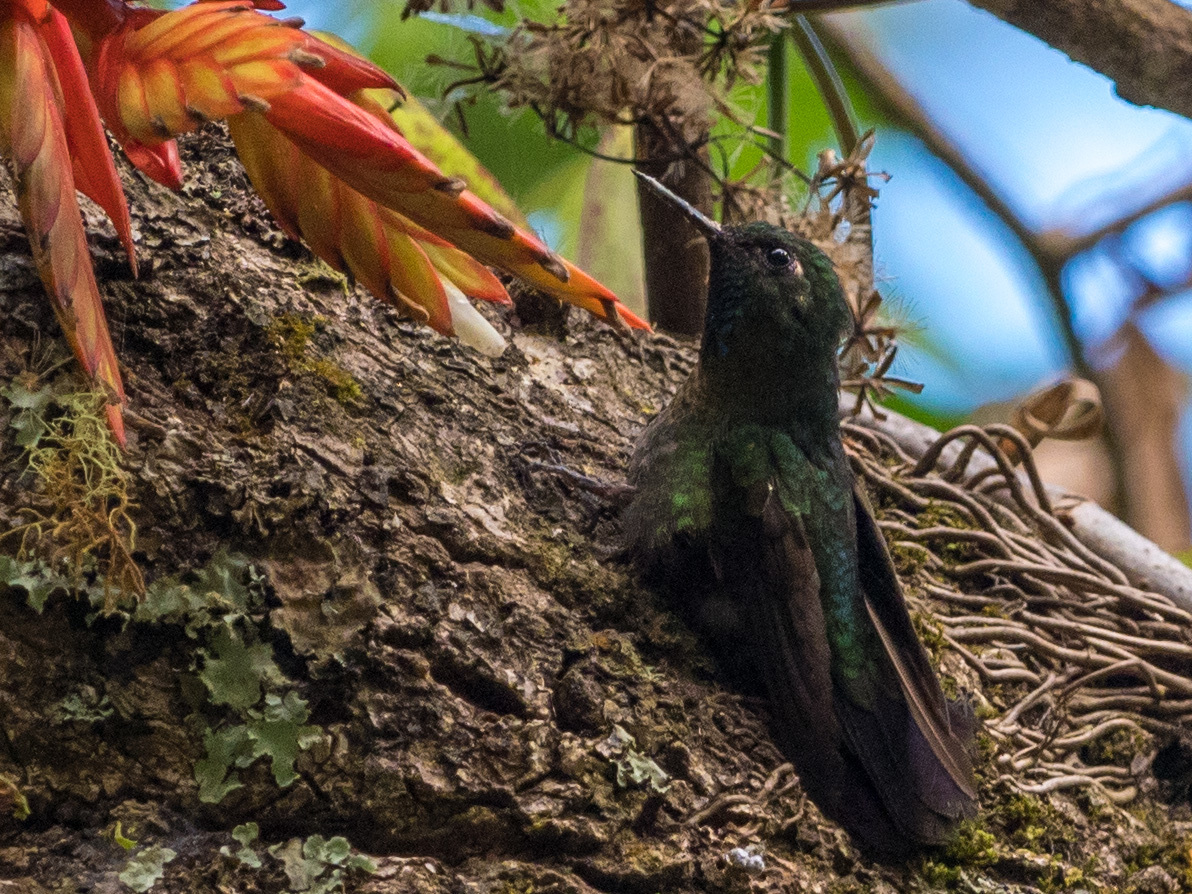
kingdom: Animalia
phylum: Chordata
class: Aves
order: Apodiformes
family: Trochilidae
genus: Metallura
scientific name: Metallura tyrianthina
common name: Tyrian metaltail
